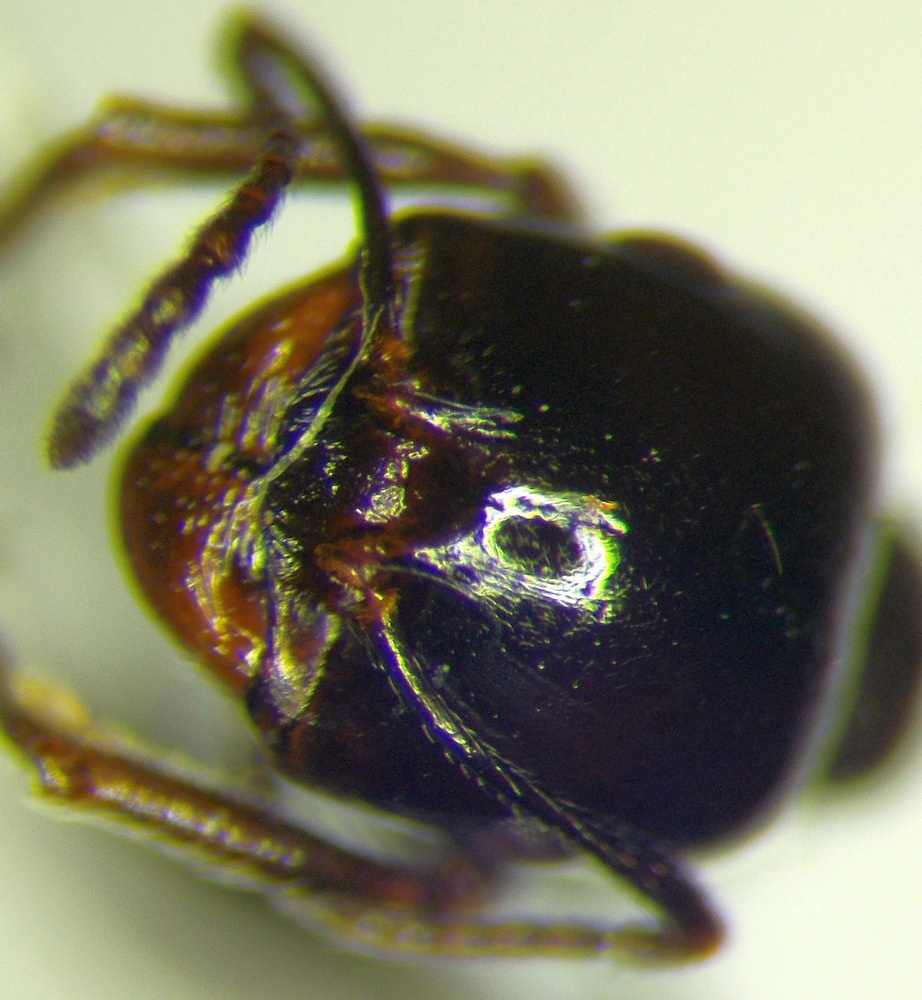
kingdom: Animalia
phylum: Arthropoda
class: Insecta
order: Hymenoptera
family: Formicidae
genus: Messor
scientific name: Messor syriacus
